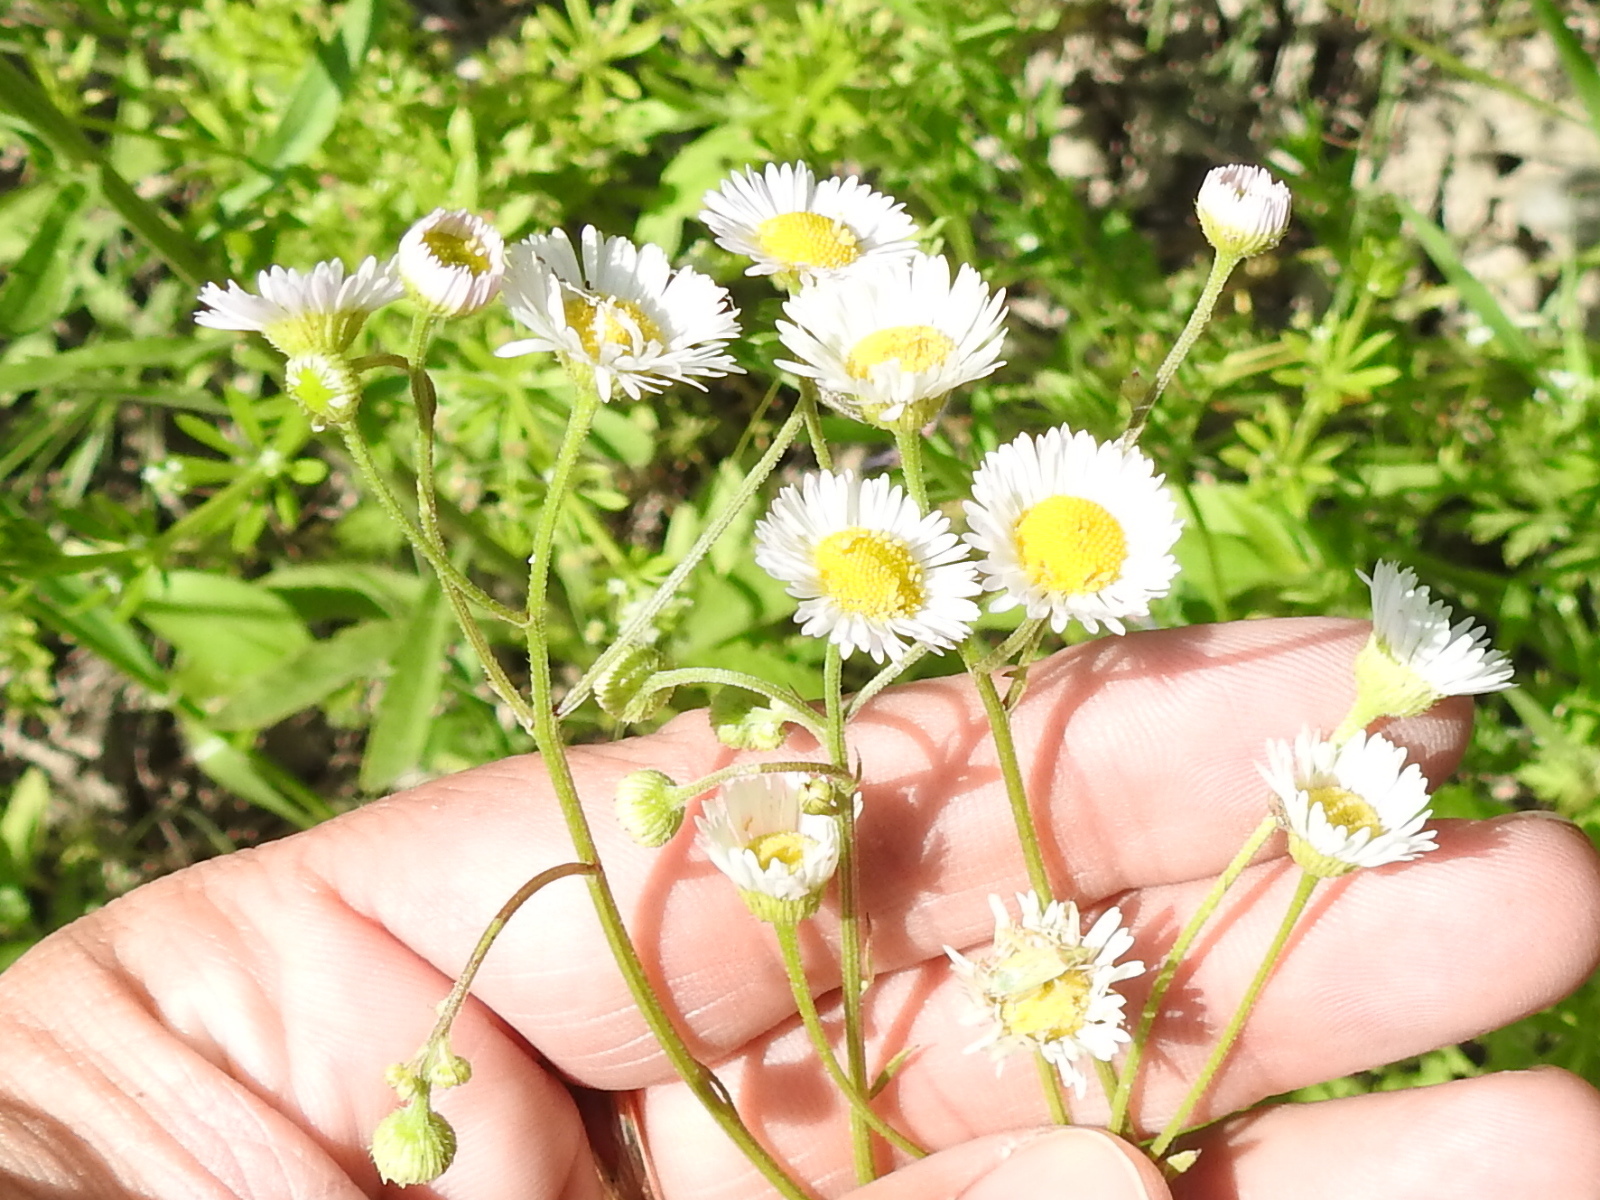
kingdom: Plantae
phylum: Tracheophyta
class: Magnoliopsida
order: Asterales
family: Asteraceae
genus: Erigeron
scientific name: Erigeron strigosus
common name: Common eastern fleabane
